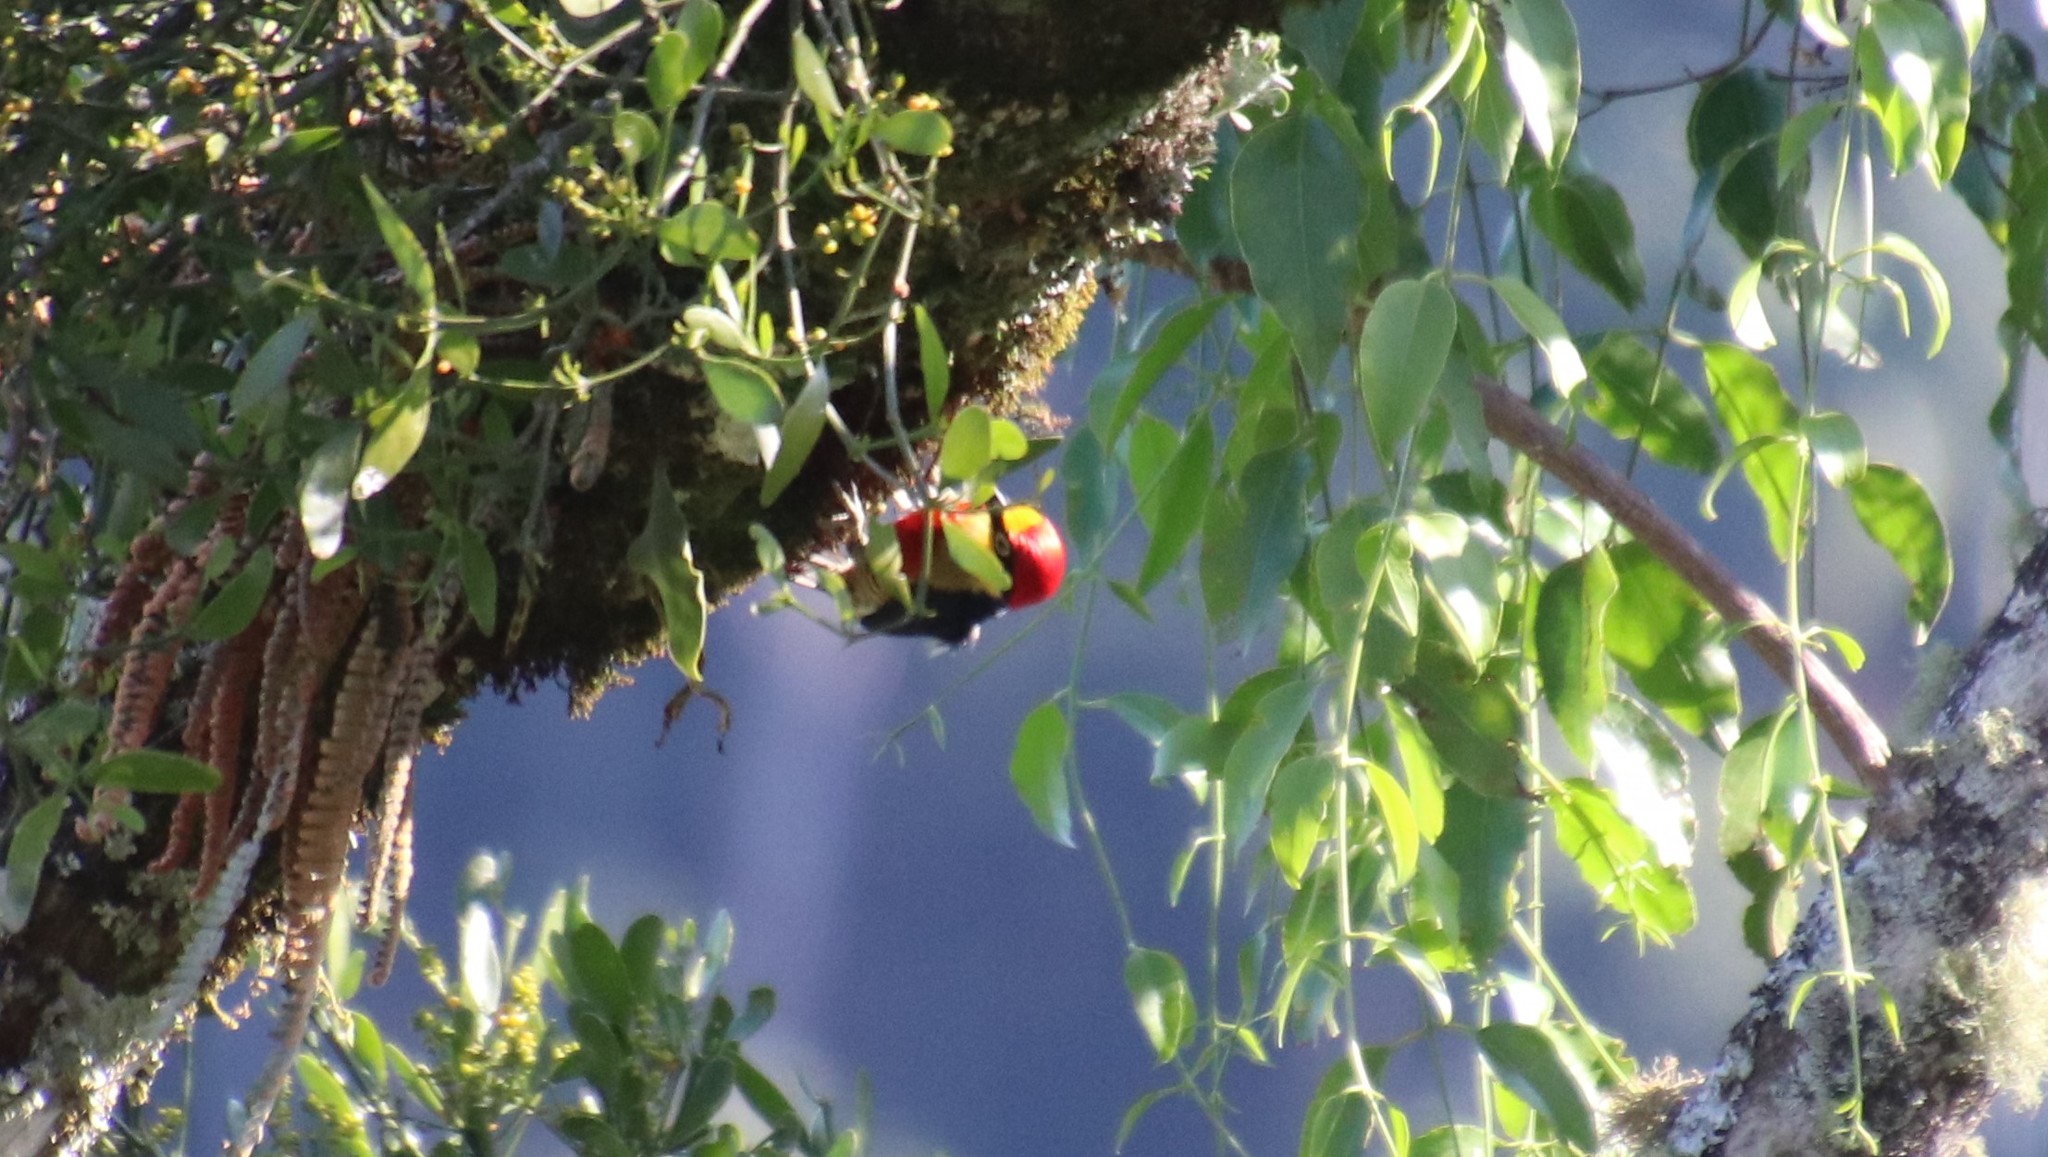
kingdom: Animalia
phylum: Chordata
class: Aves
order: Piciformes
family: Picidae
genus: Melanerpes
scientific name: Melanerpes flavifrons
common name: Yellow-fronted woodpecker
